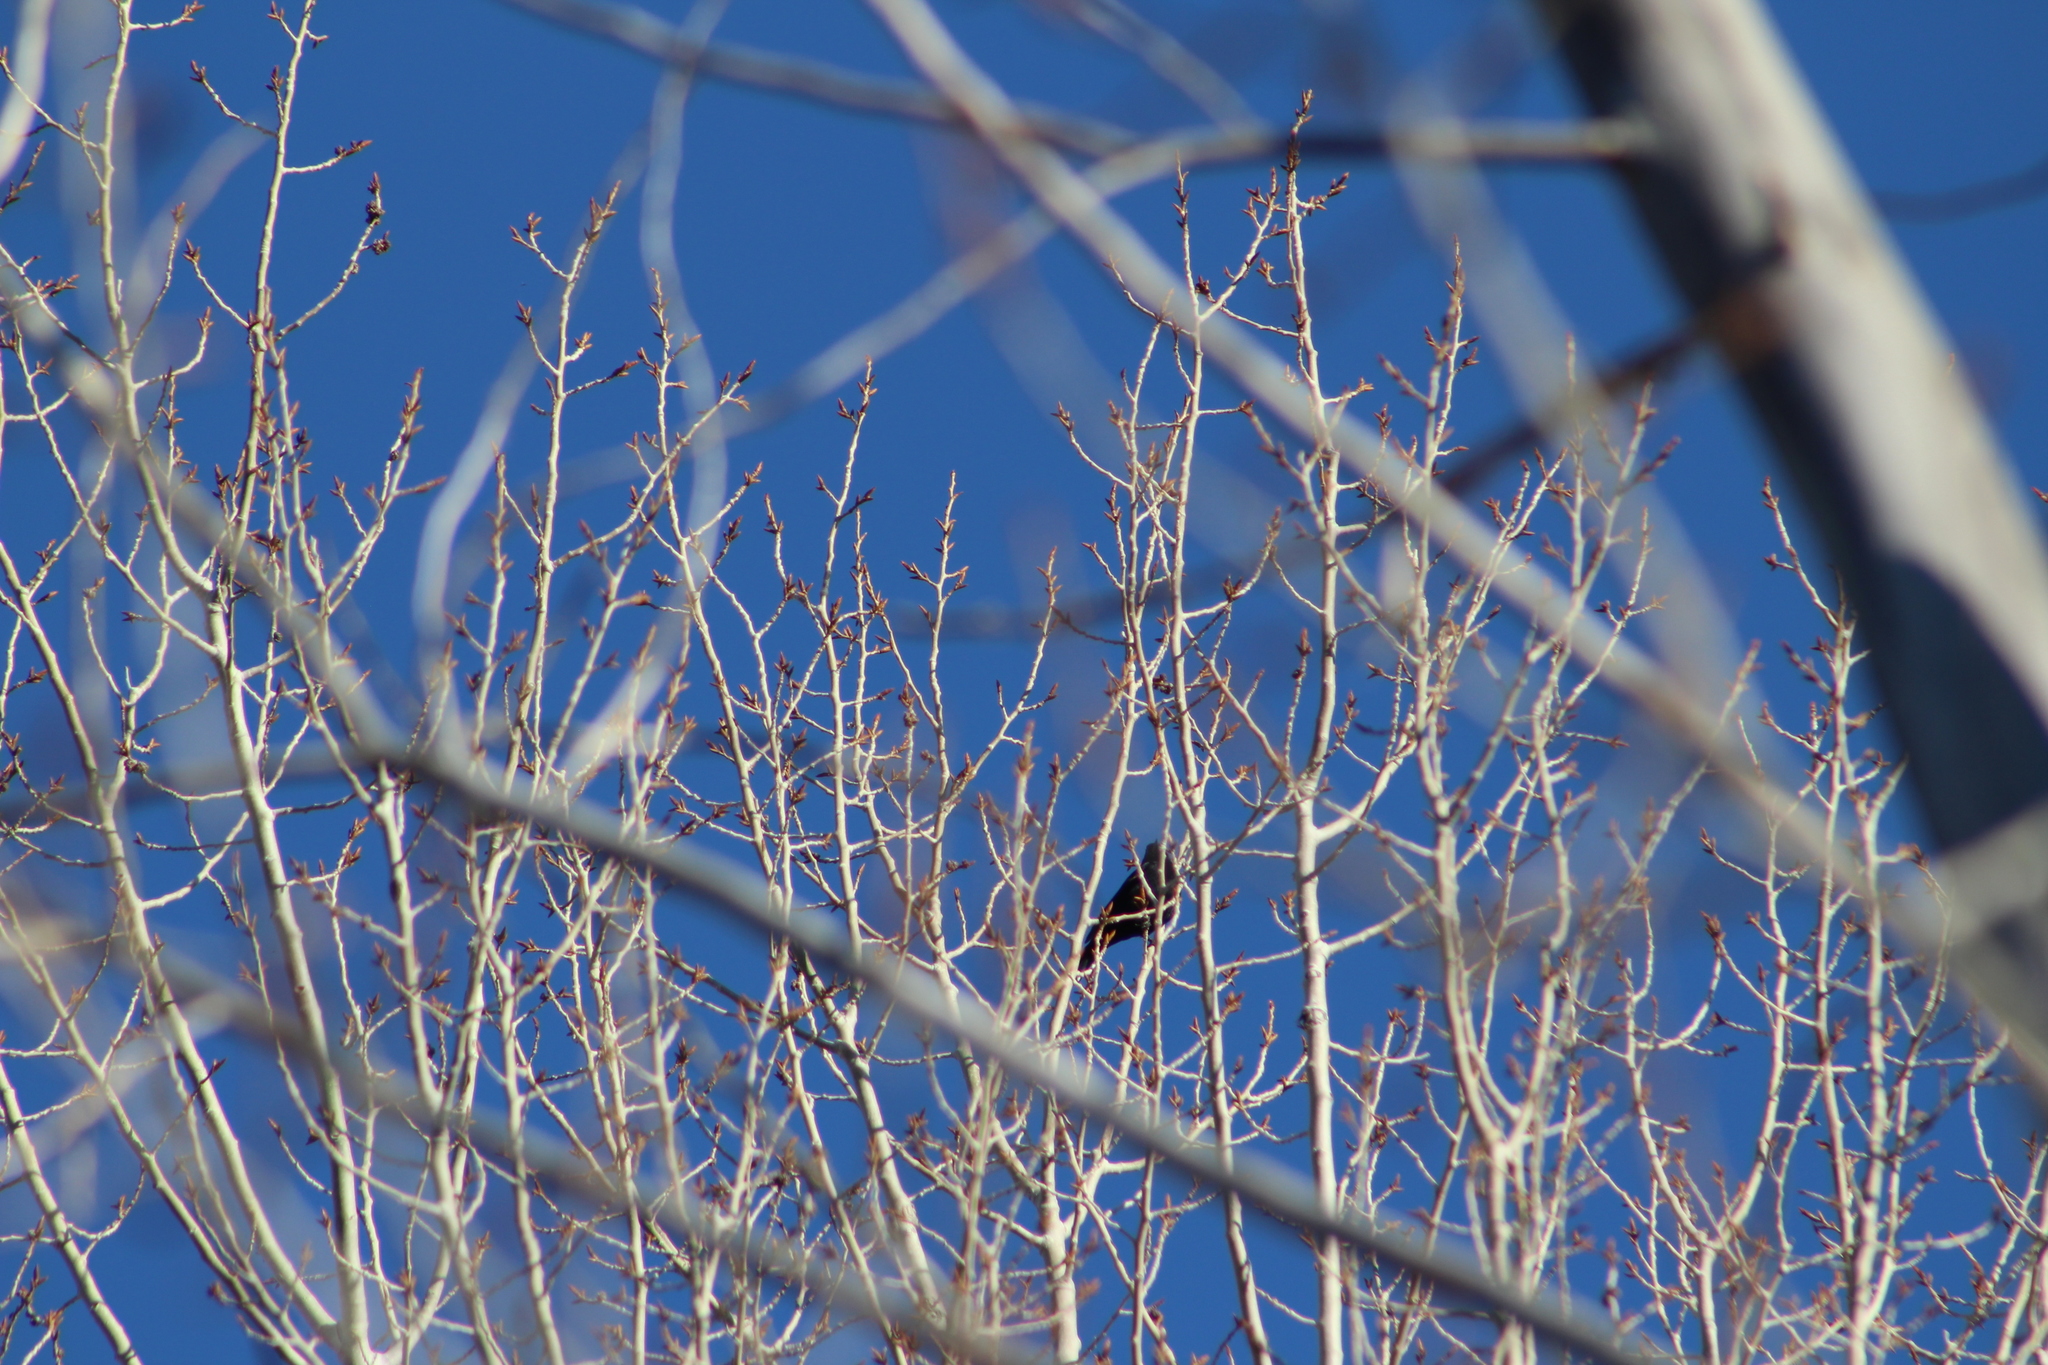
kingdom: Animalia
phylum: Chordata
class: Aves
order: Passeriformes
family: Icteridae
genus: Agelaius
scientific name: Agelaius phoeniceus
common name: Red-winged blackbird
